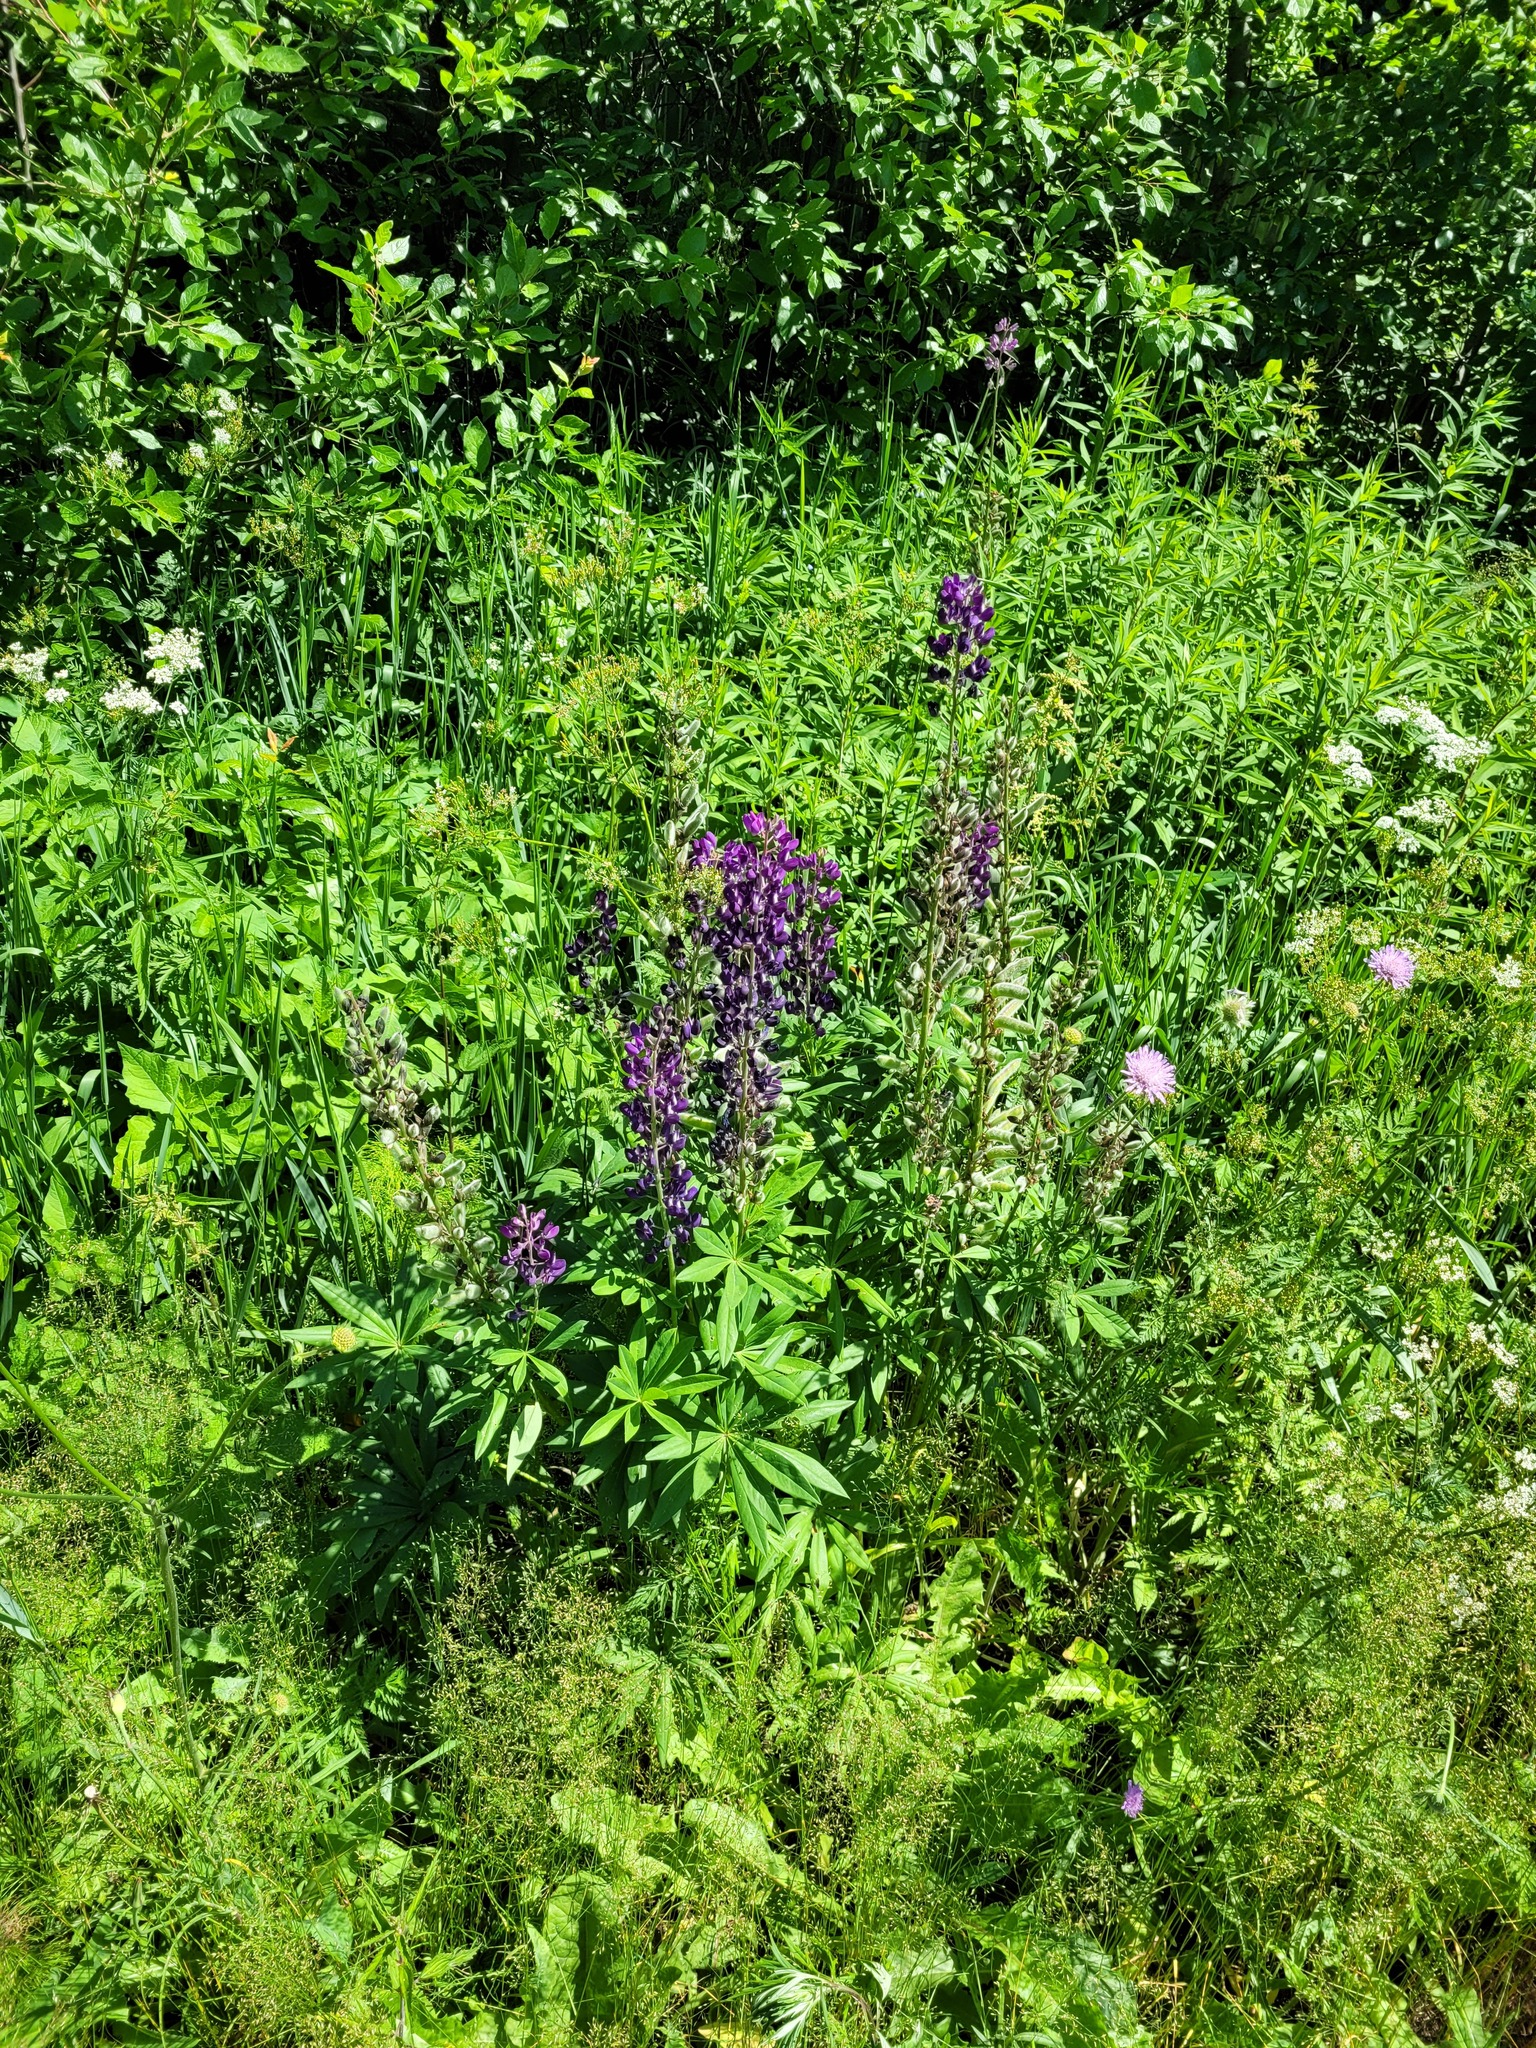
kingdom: Plantae
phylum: Tracheophyta
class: Magnoliopsida
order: Fabales
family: Fabaceae
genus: Lupinus
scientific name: Lupinus polyphyllus
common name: Garden lupin
